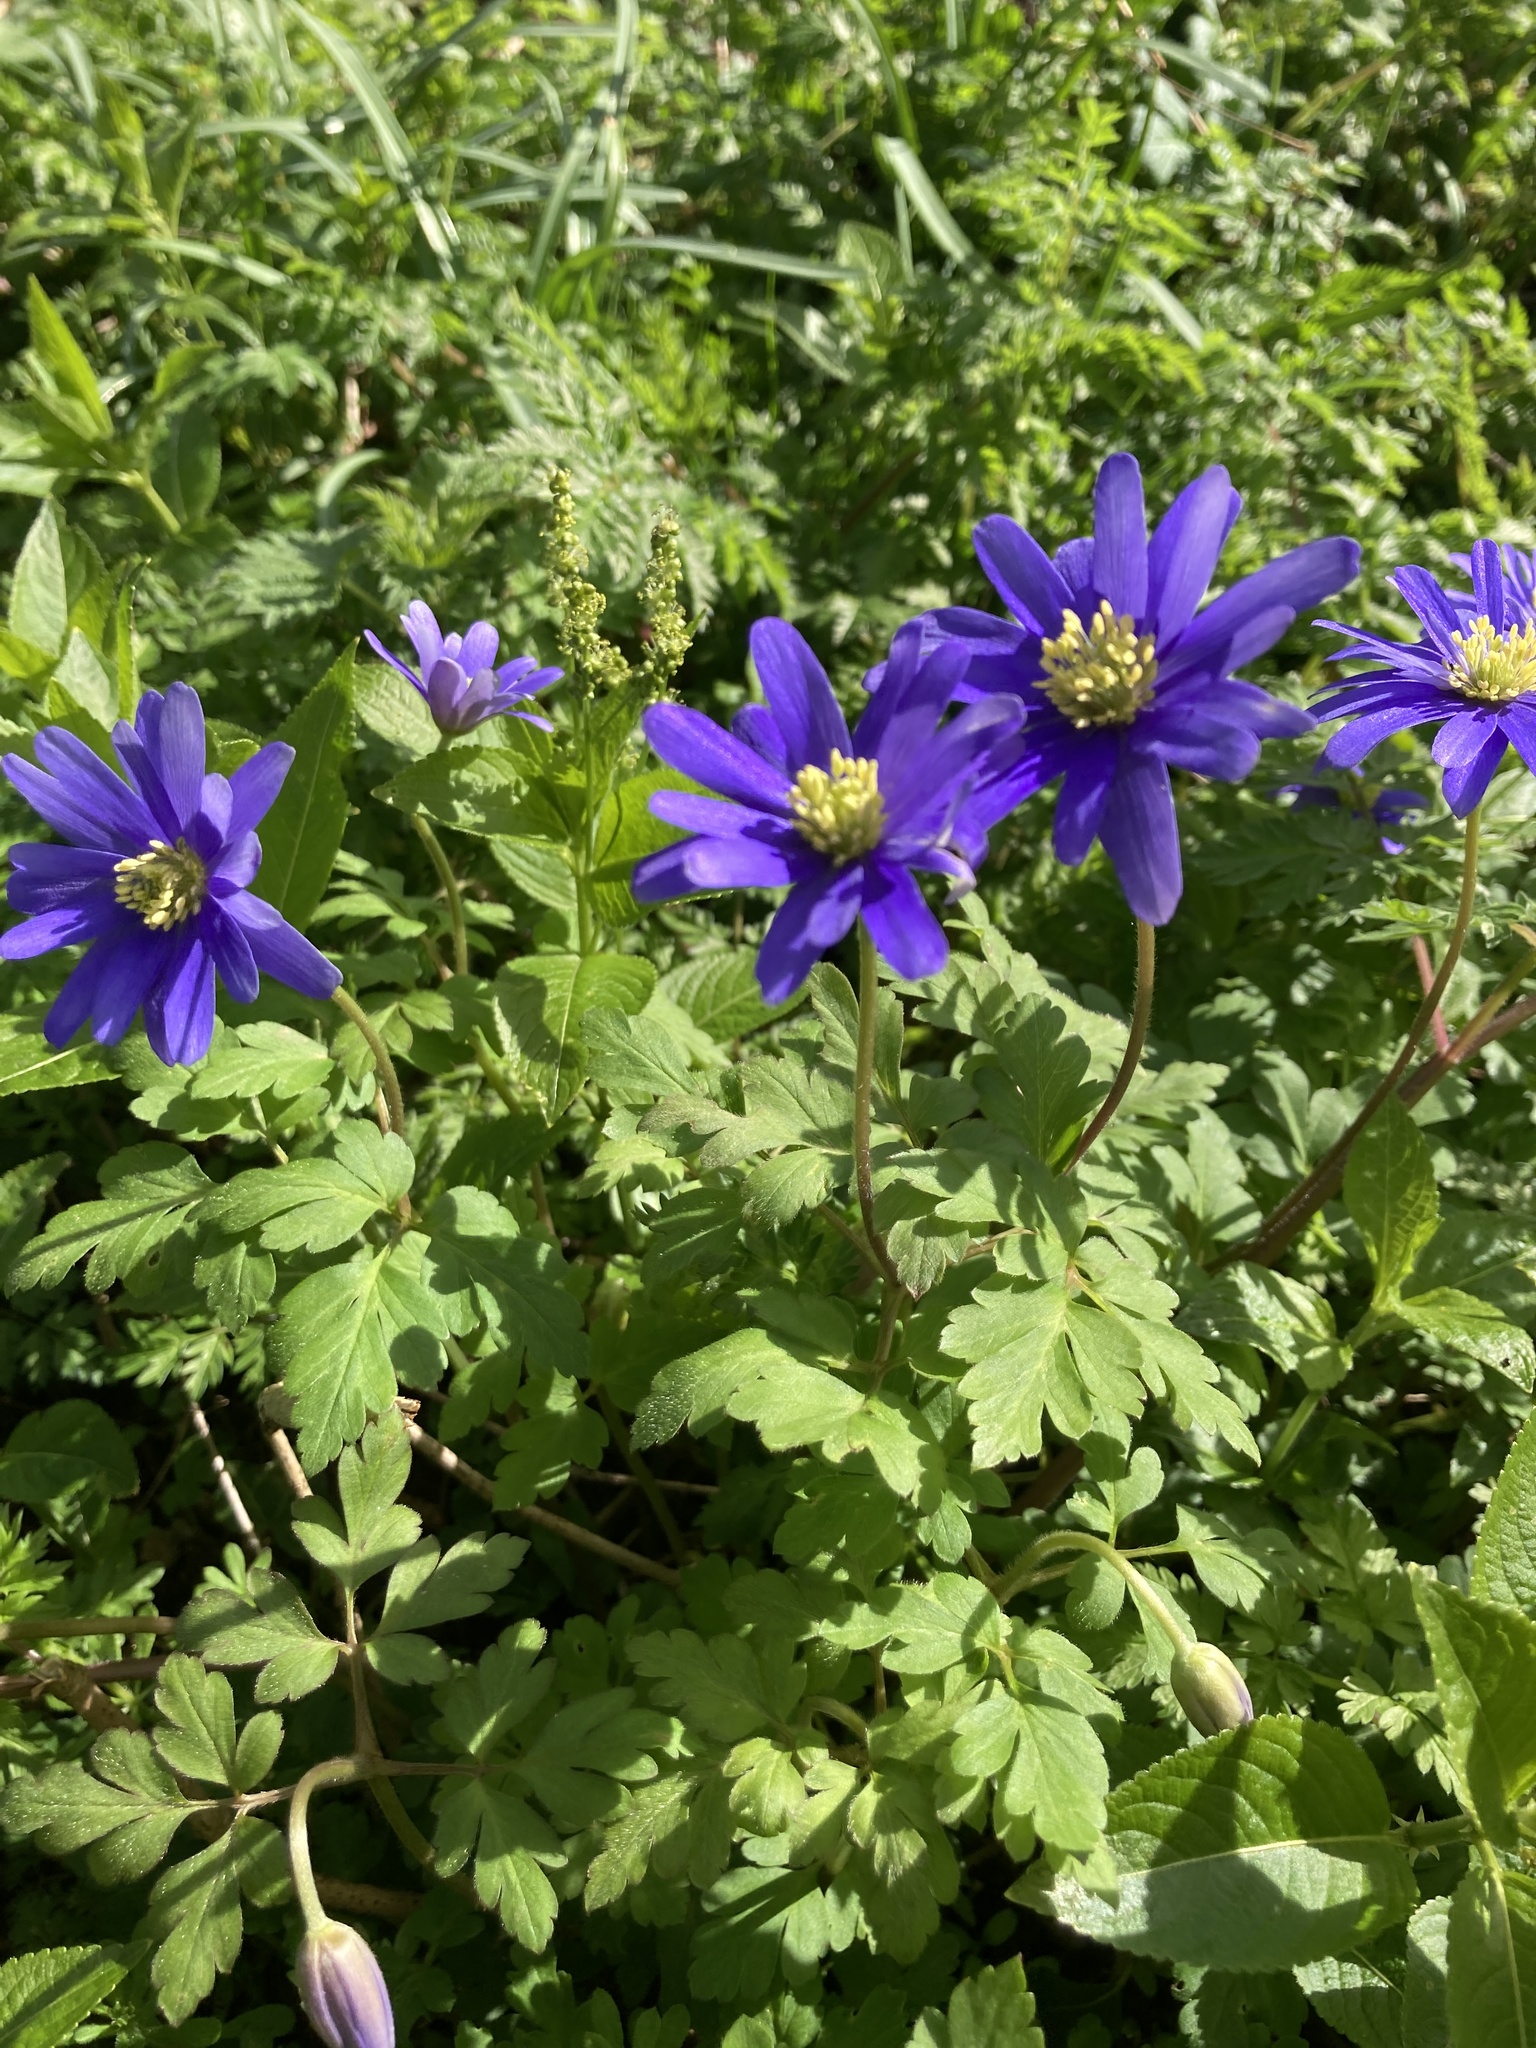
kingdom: Plantae
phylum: Tracheophyta
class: Magnoliopsida
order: Ranunculales
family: Ranunculaceae
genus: Anemone
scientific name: Anemone apennina
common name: Blue anemone
